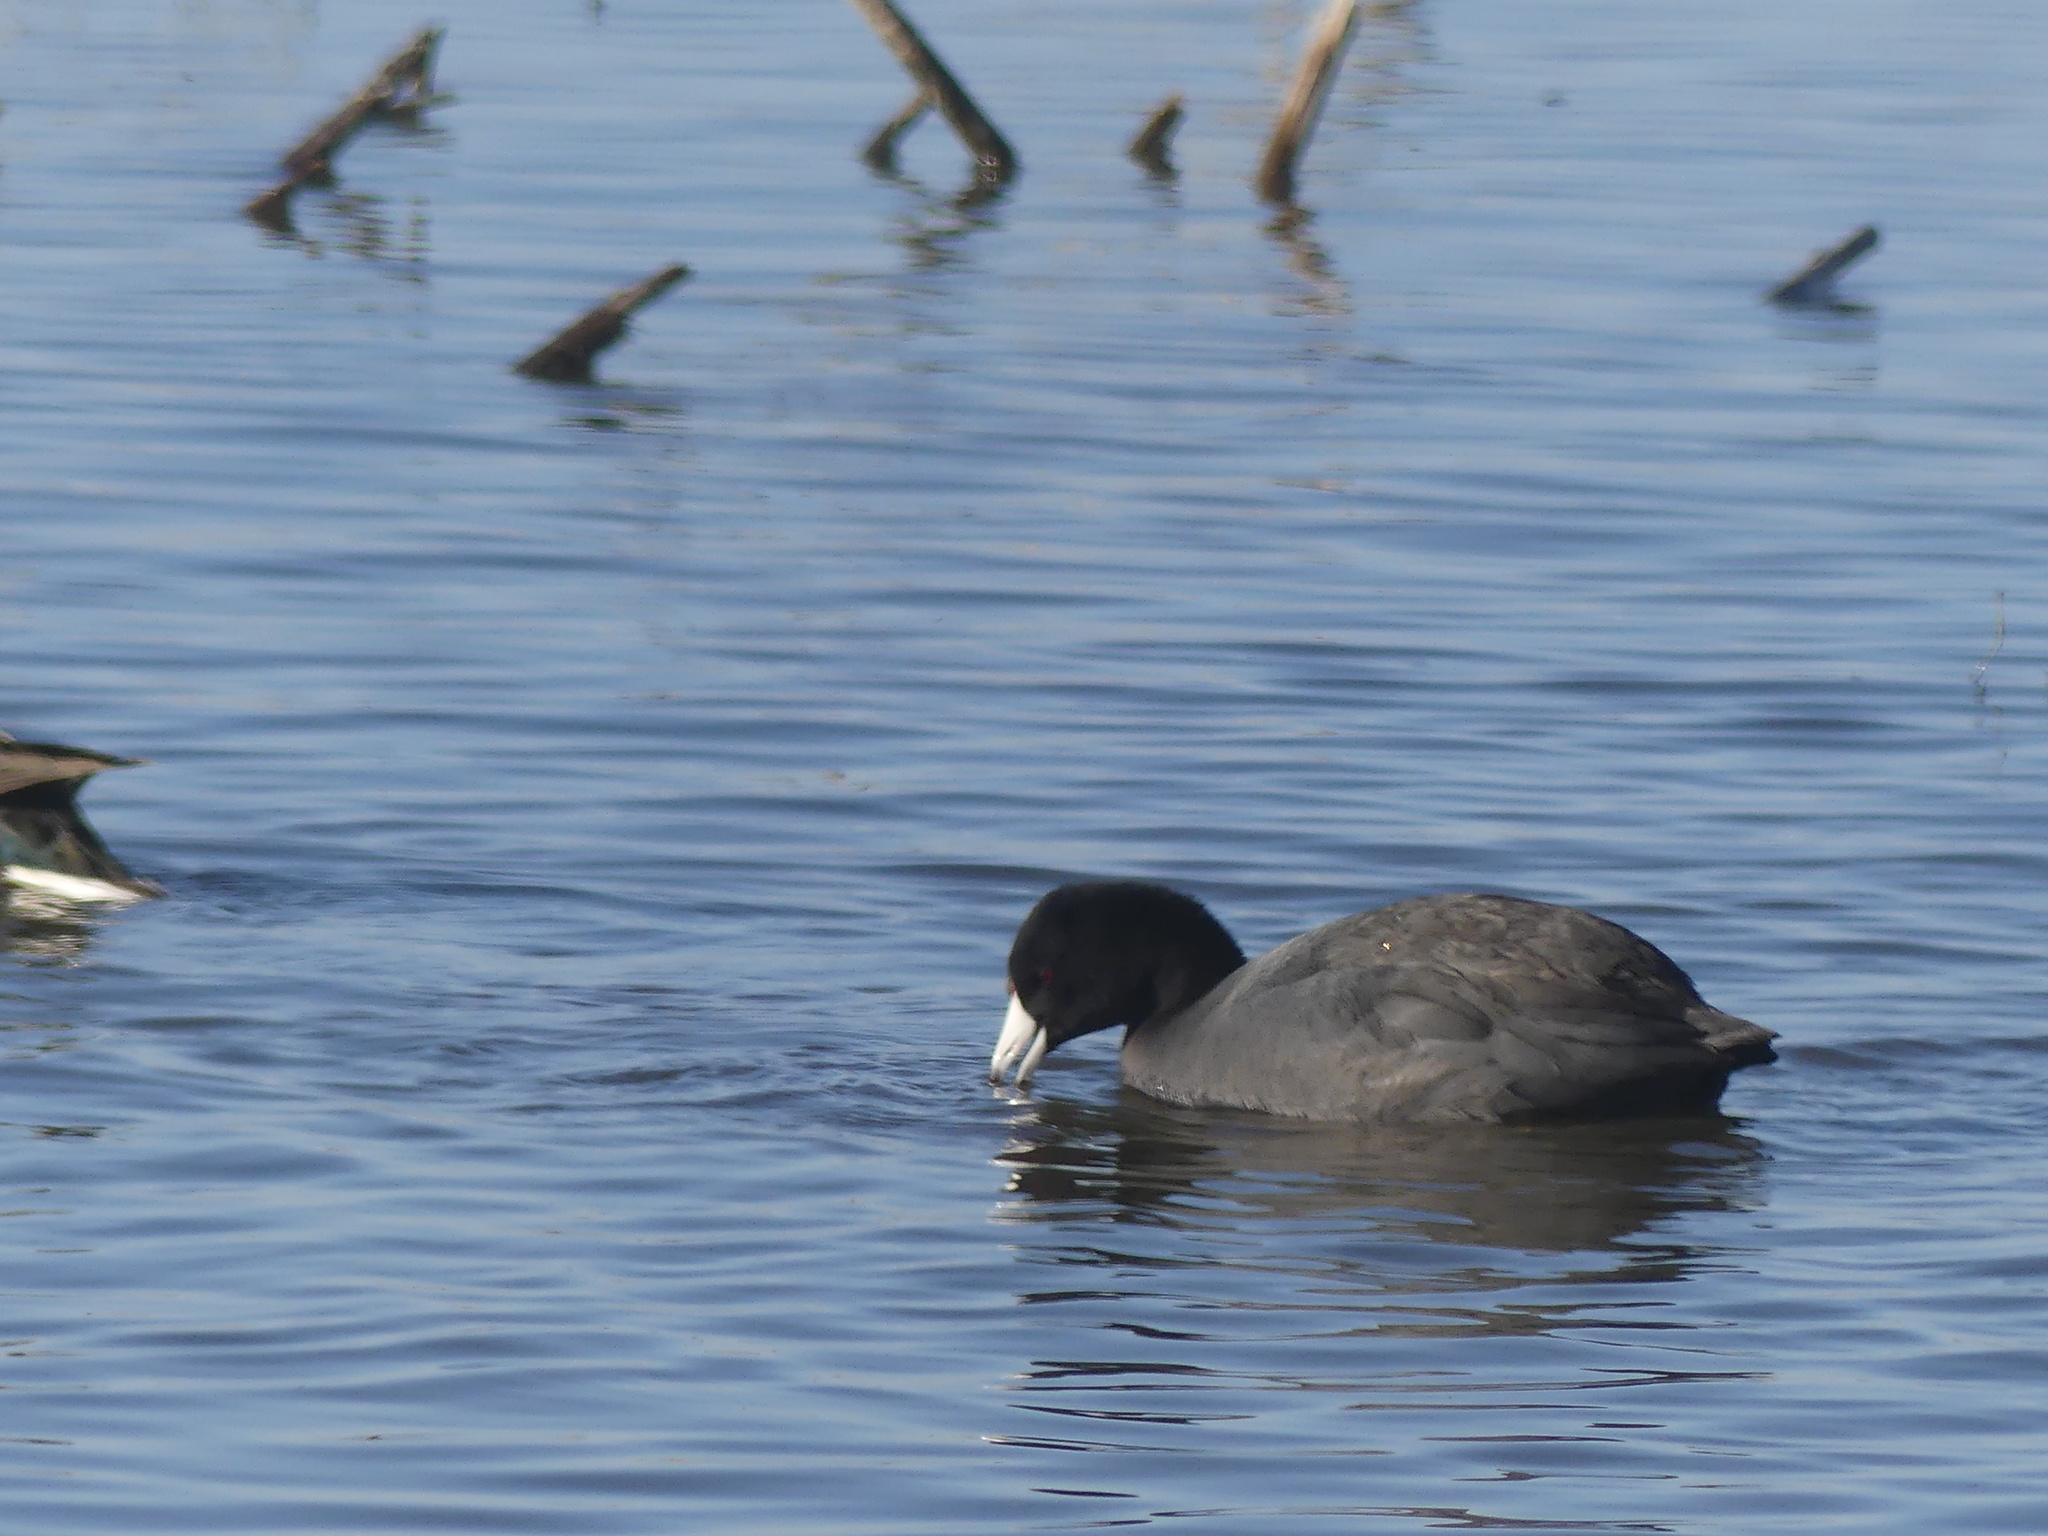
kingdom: Animalia
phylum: Chordata
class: Aves
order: Gruiformes
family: Rallidae
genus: Fulica
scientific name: Fulica americana
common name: American coot
